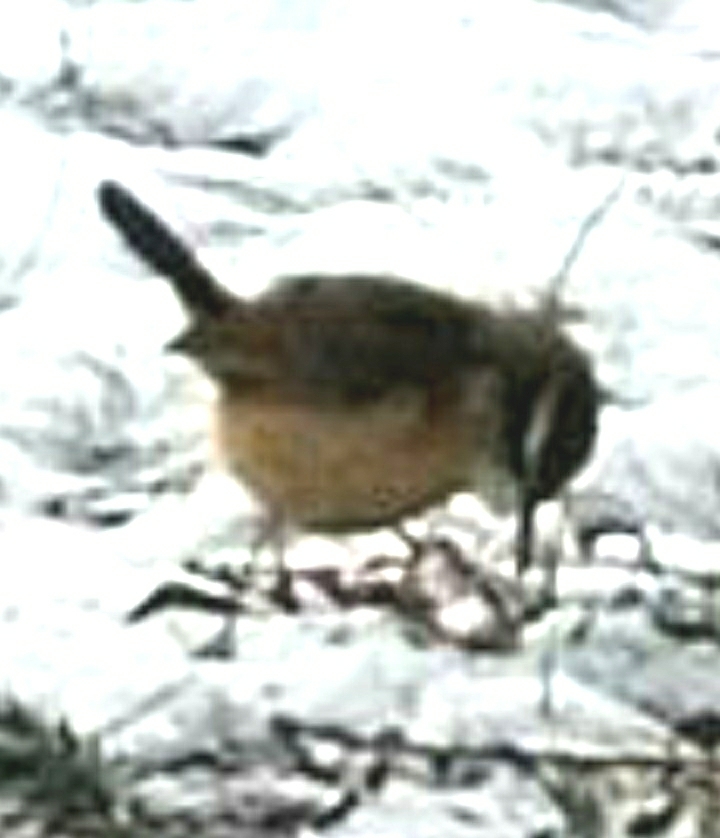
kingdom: Animalia
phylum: Chordata
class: Aves
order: Passeriformes
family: Troglodytidae
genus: Thryothorus
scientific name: Thryothorus ludovicianus
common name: Carolina wren
